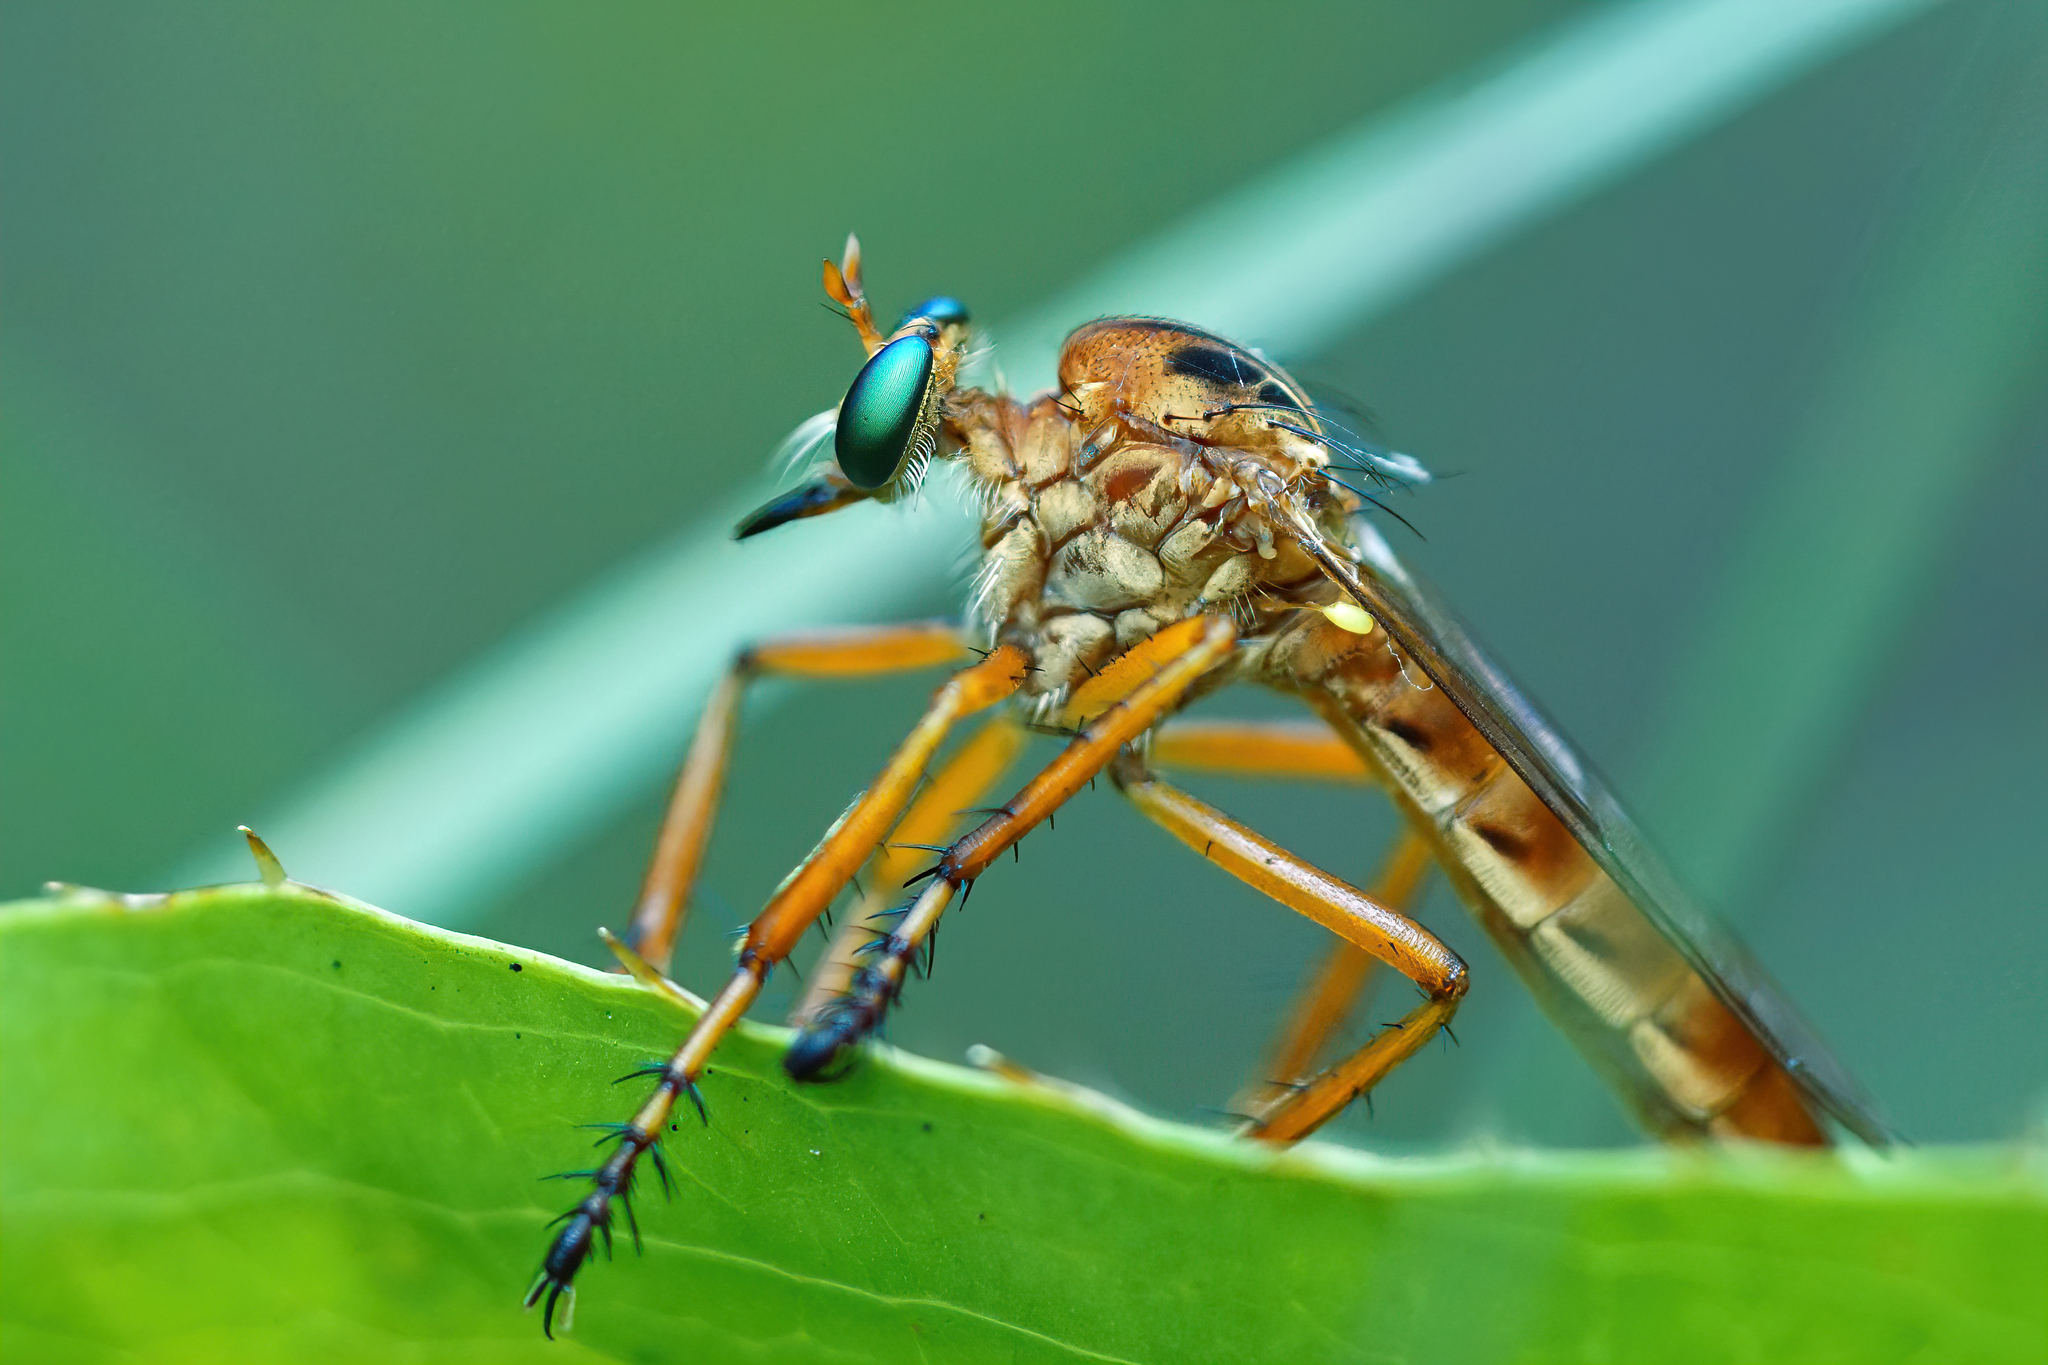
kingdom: Animalia
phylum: Arthropoda
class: Insecta
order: Diptera
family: Asilidae
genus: Diogmites
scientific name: Diogmites esuriens
